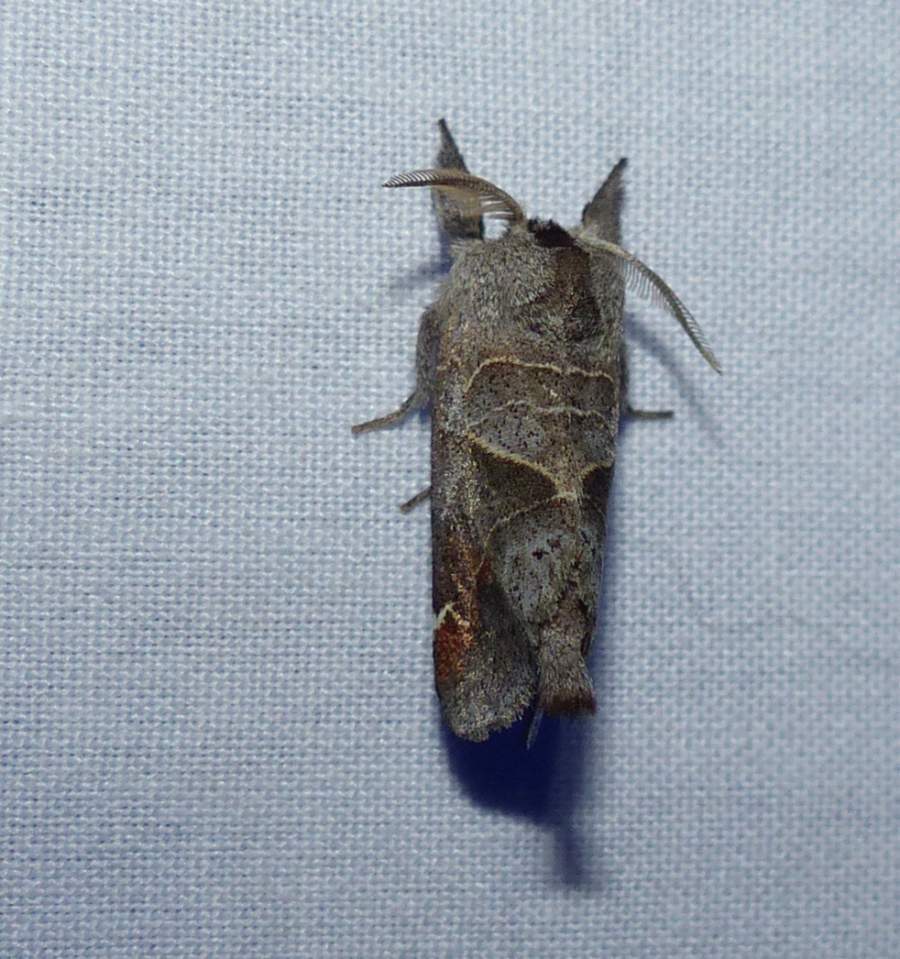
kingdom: Animalia
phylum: Arthropoda
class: Insecta
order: Lepidoptera
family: Notodontidae
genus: Clostera
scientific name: Clostera apicalis
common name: Apical prominent
